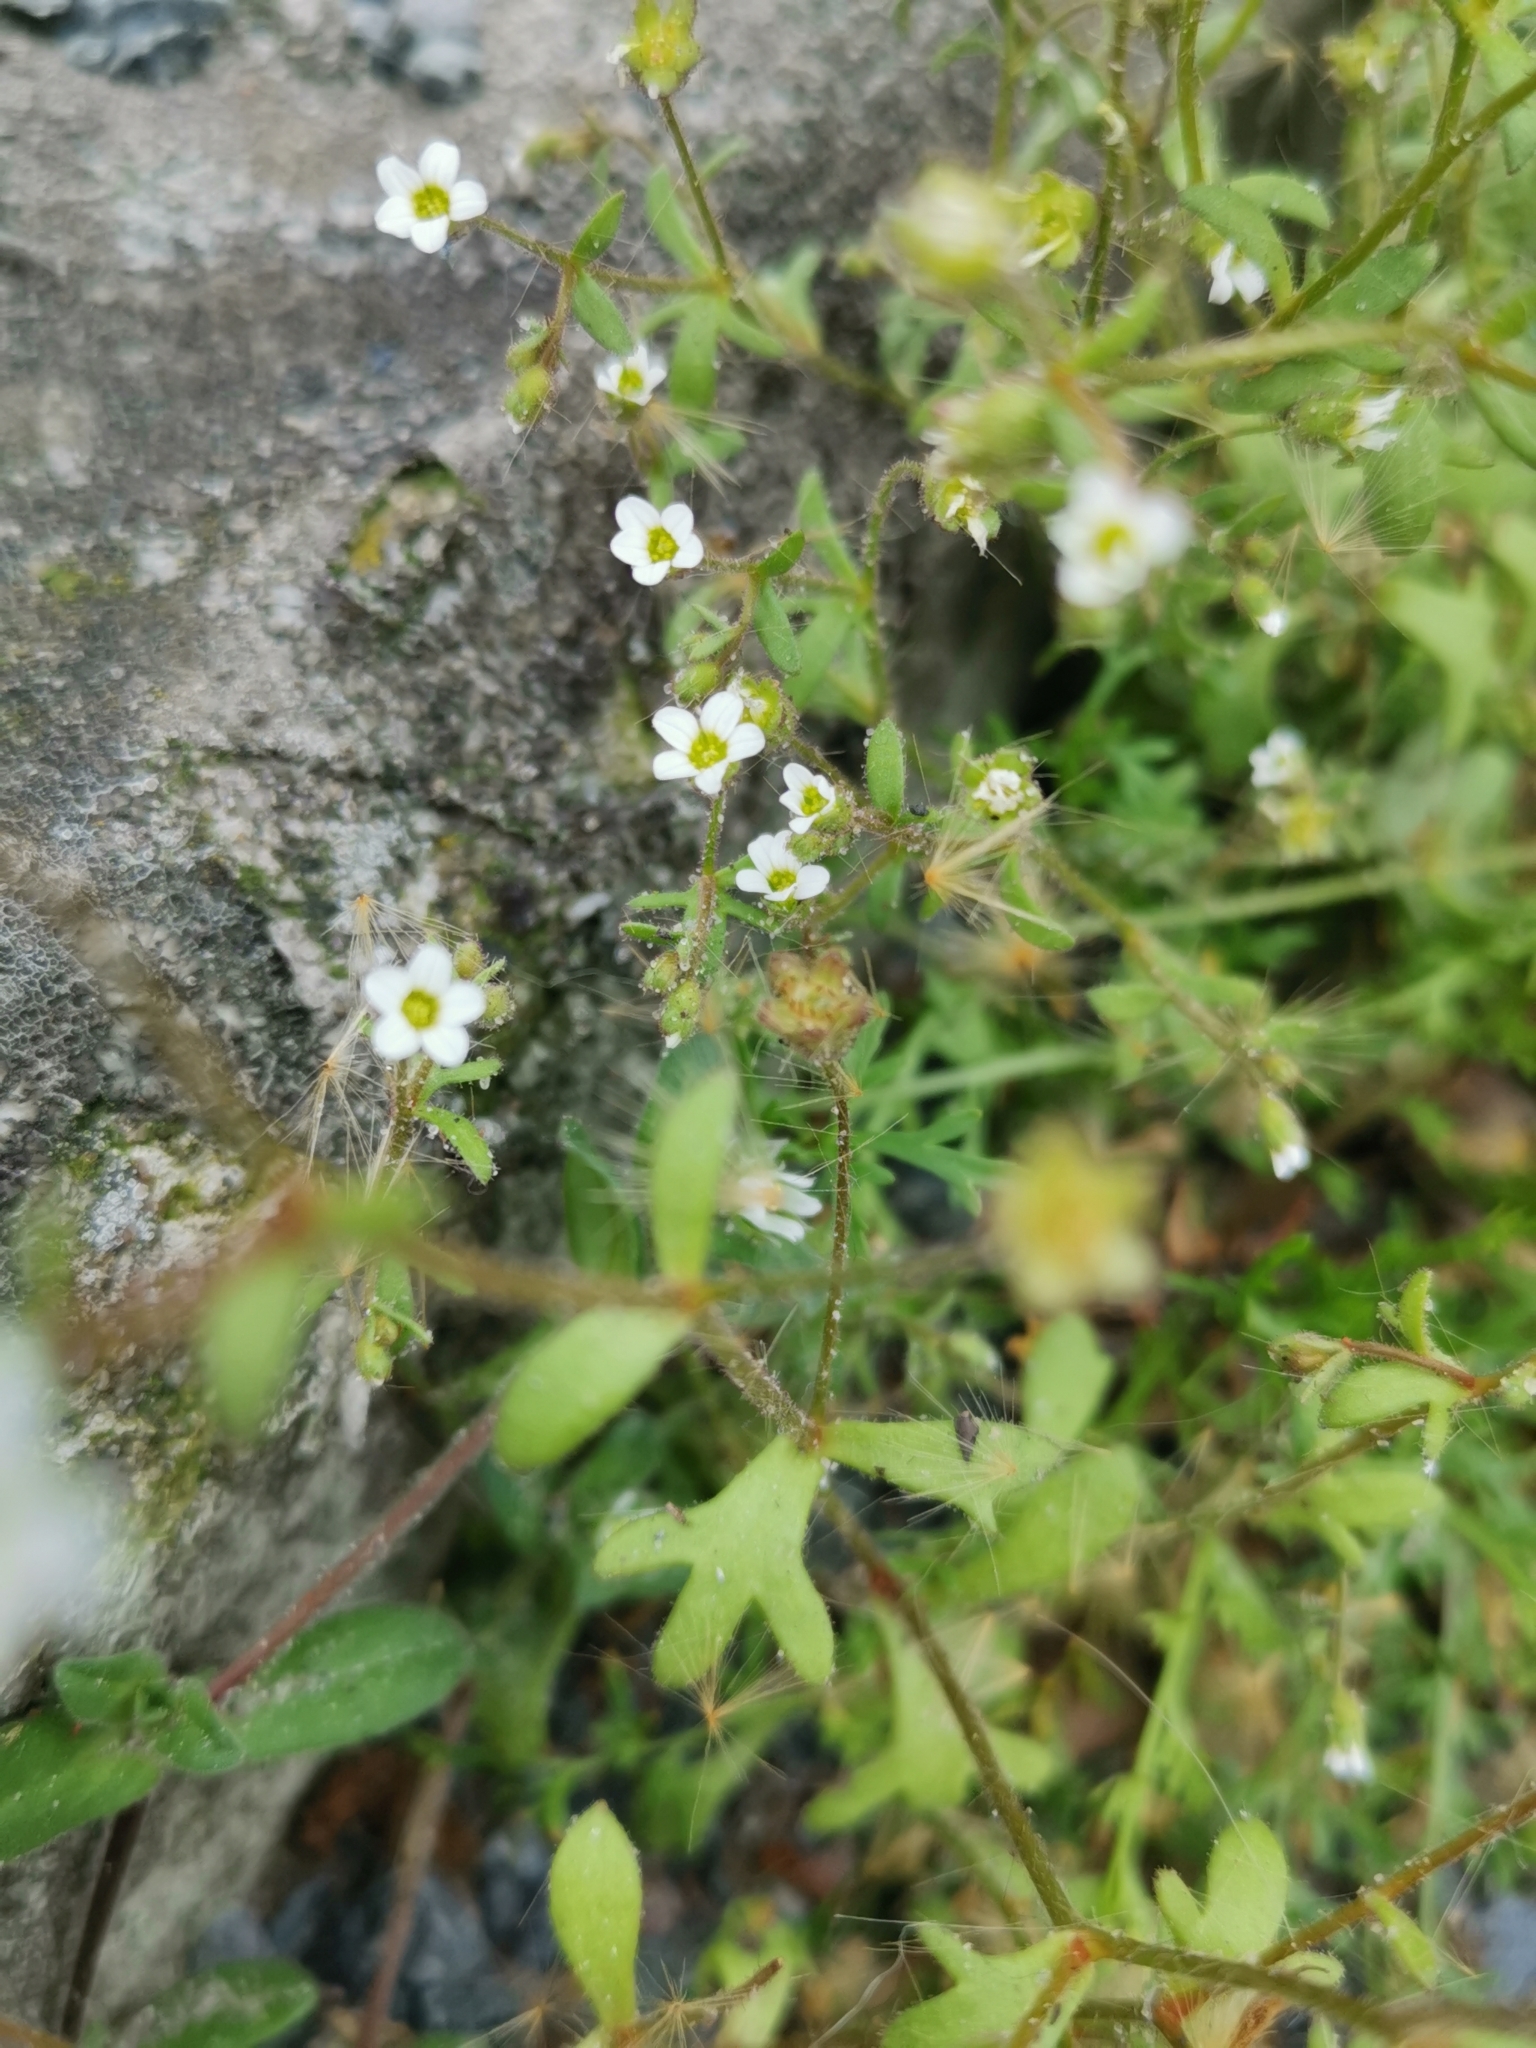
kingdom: Plantae
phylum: Tracheophyta
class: Magnoliopsida
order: Saxifragales
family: Saxifragaceae
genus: Saxifraga
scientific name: Saxifraga tridactylites
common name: Rue-leaved saxifrage
